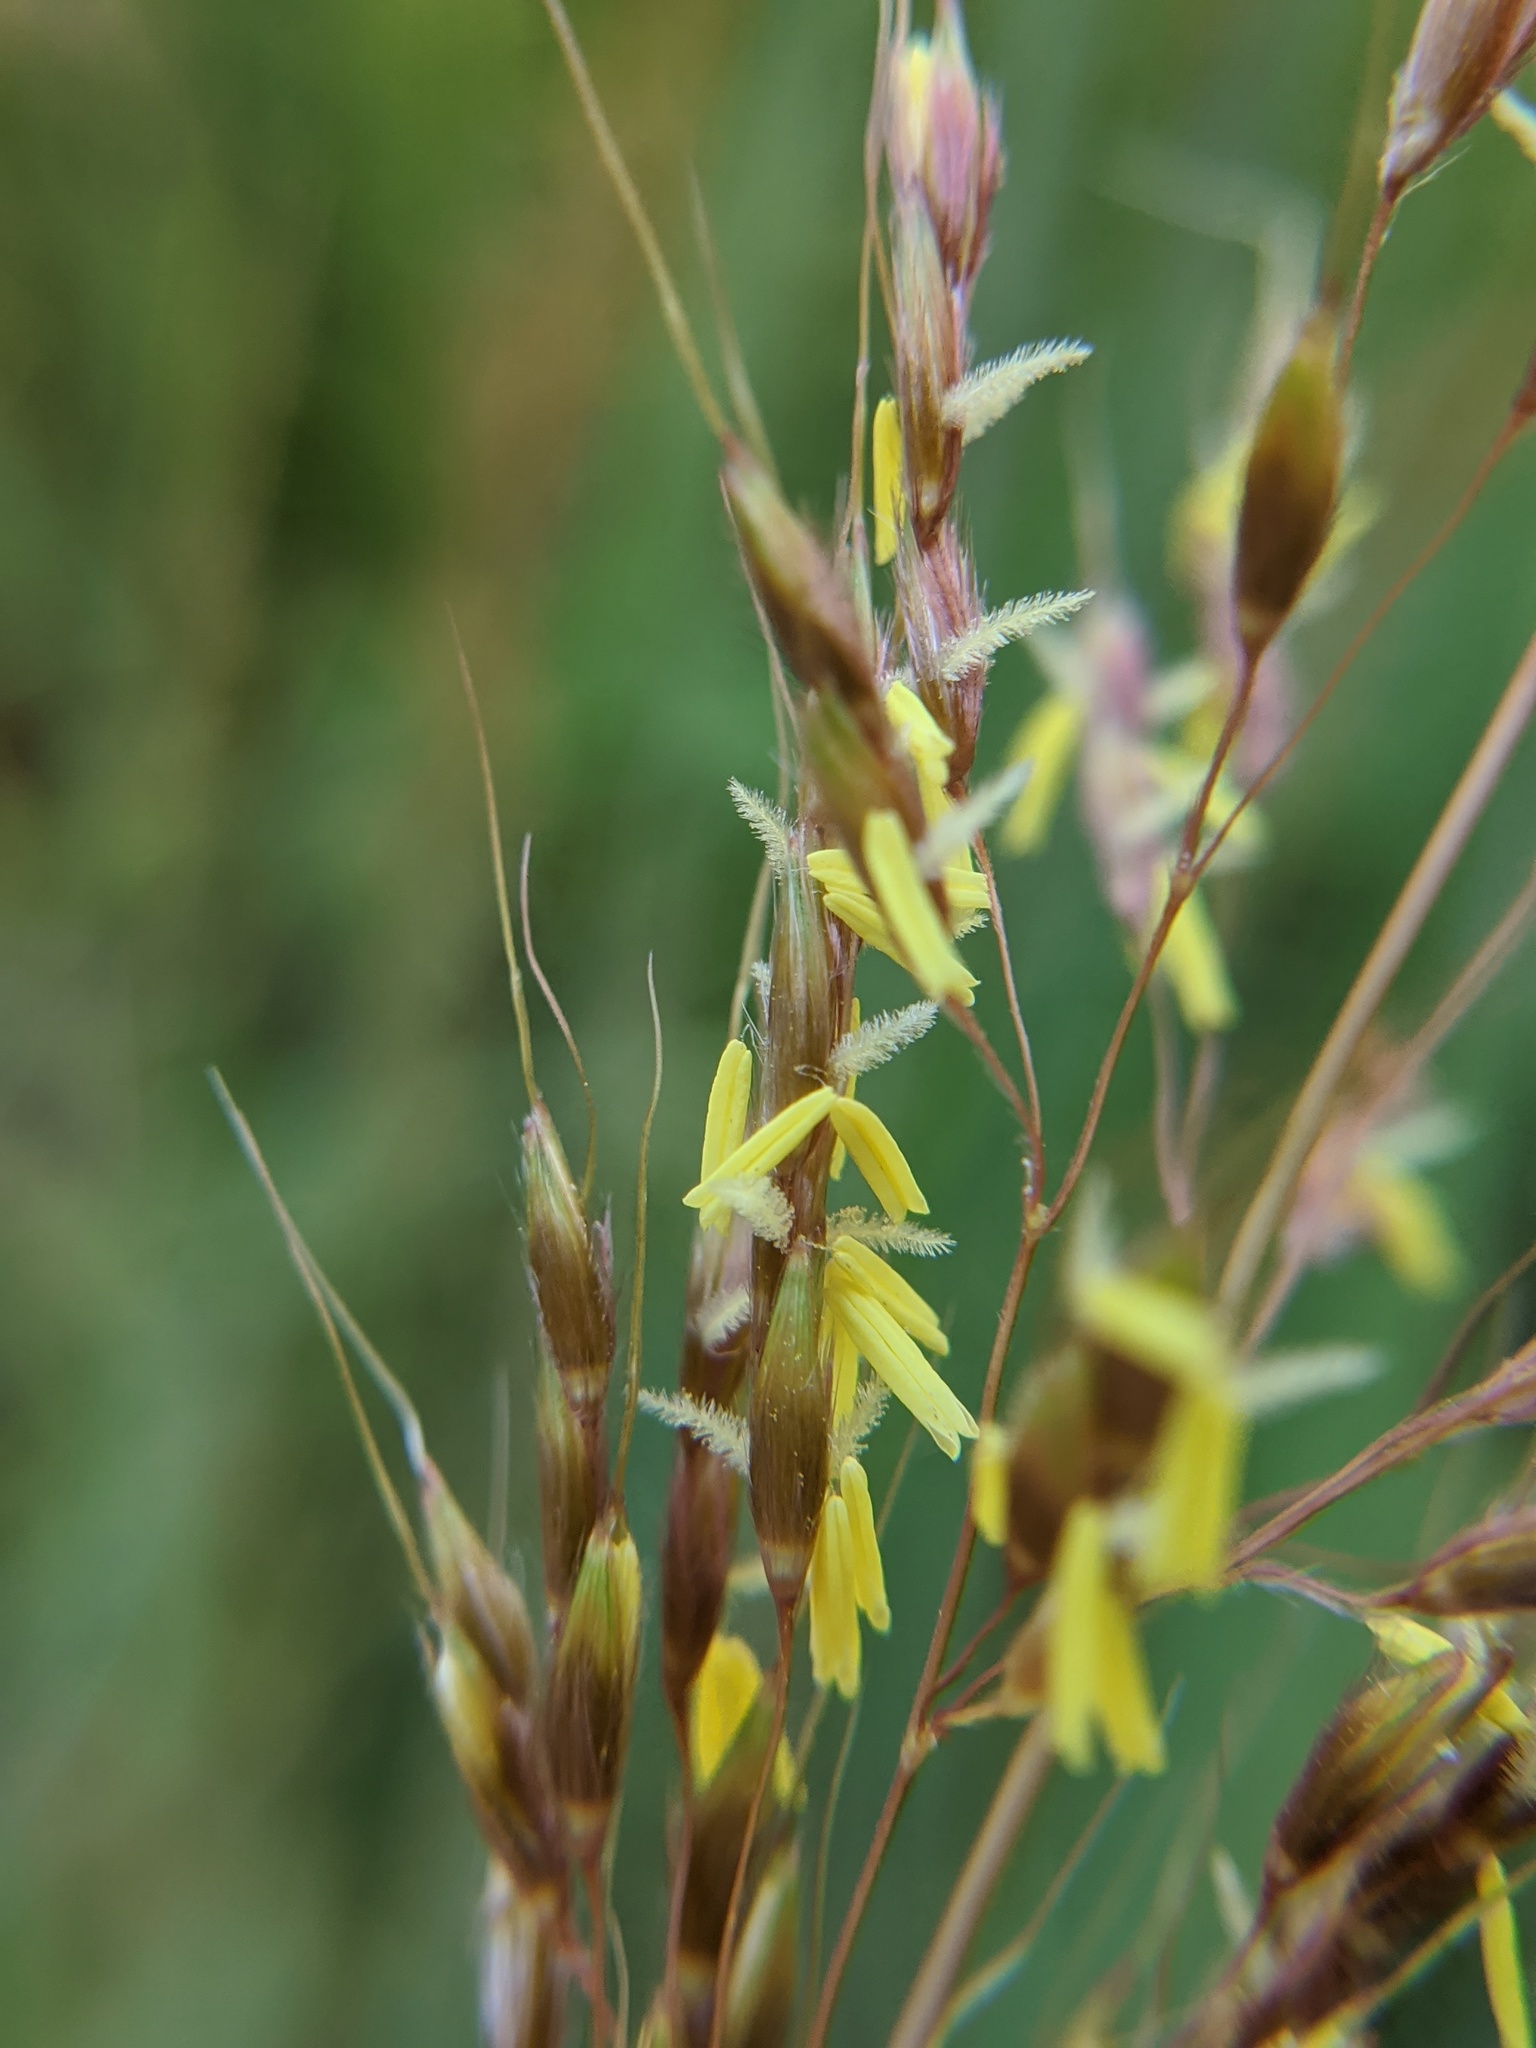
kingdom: Plantae
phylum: Tracheophyta
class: Liliopsida
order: Poales
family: Poaceae
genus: Sorghastrum
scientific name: Sorghastrum nutans
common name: Indian grass
